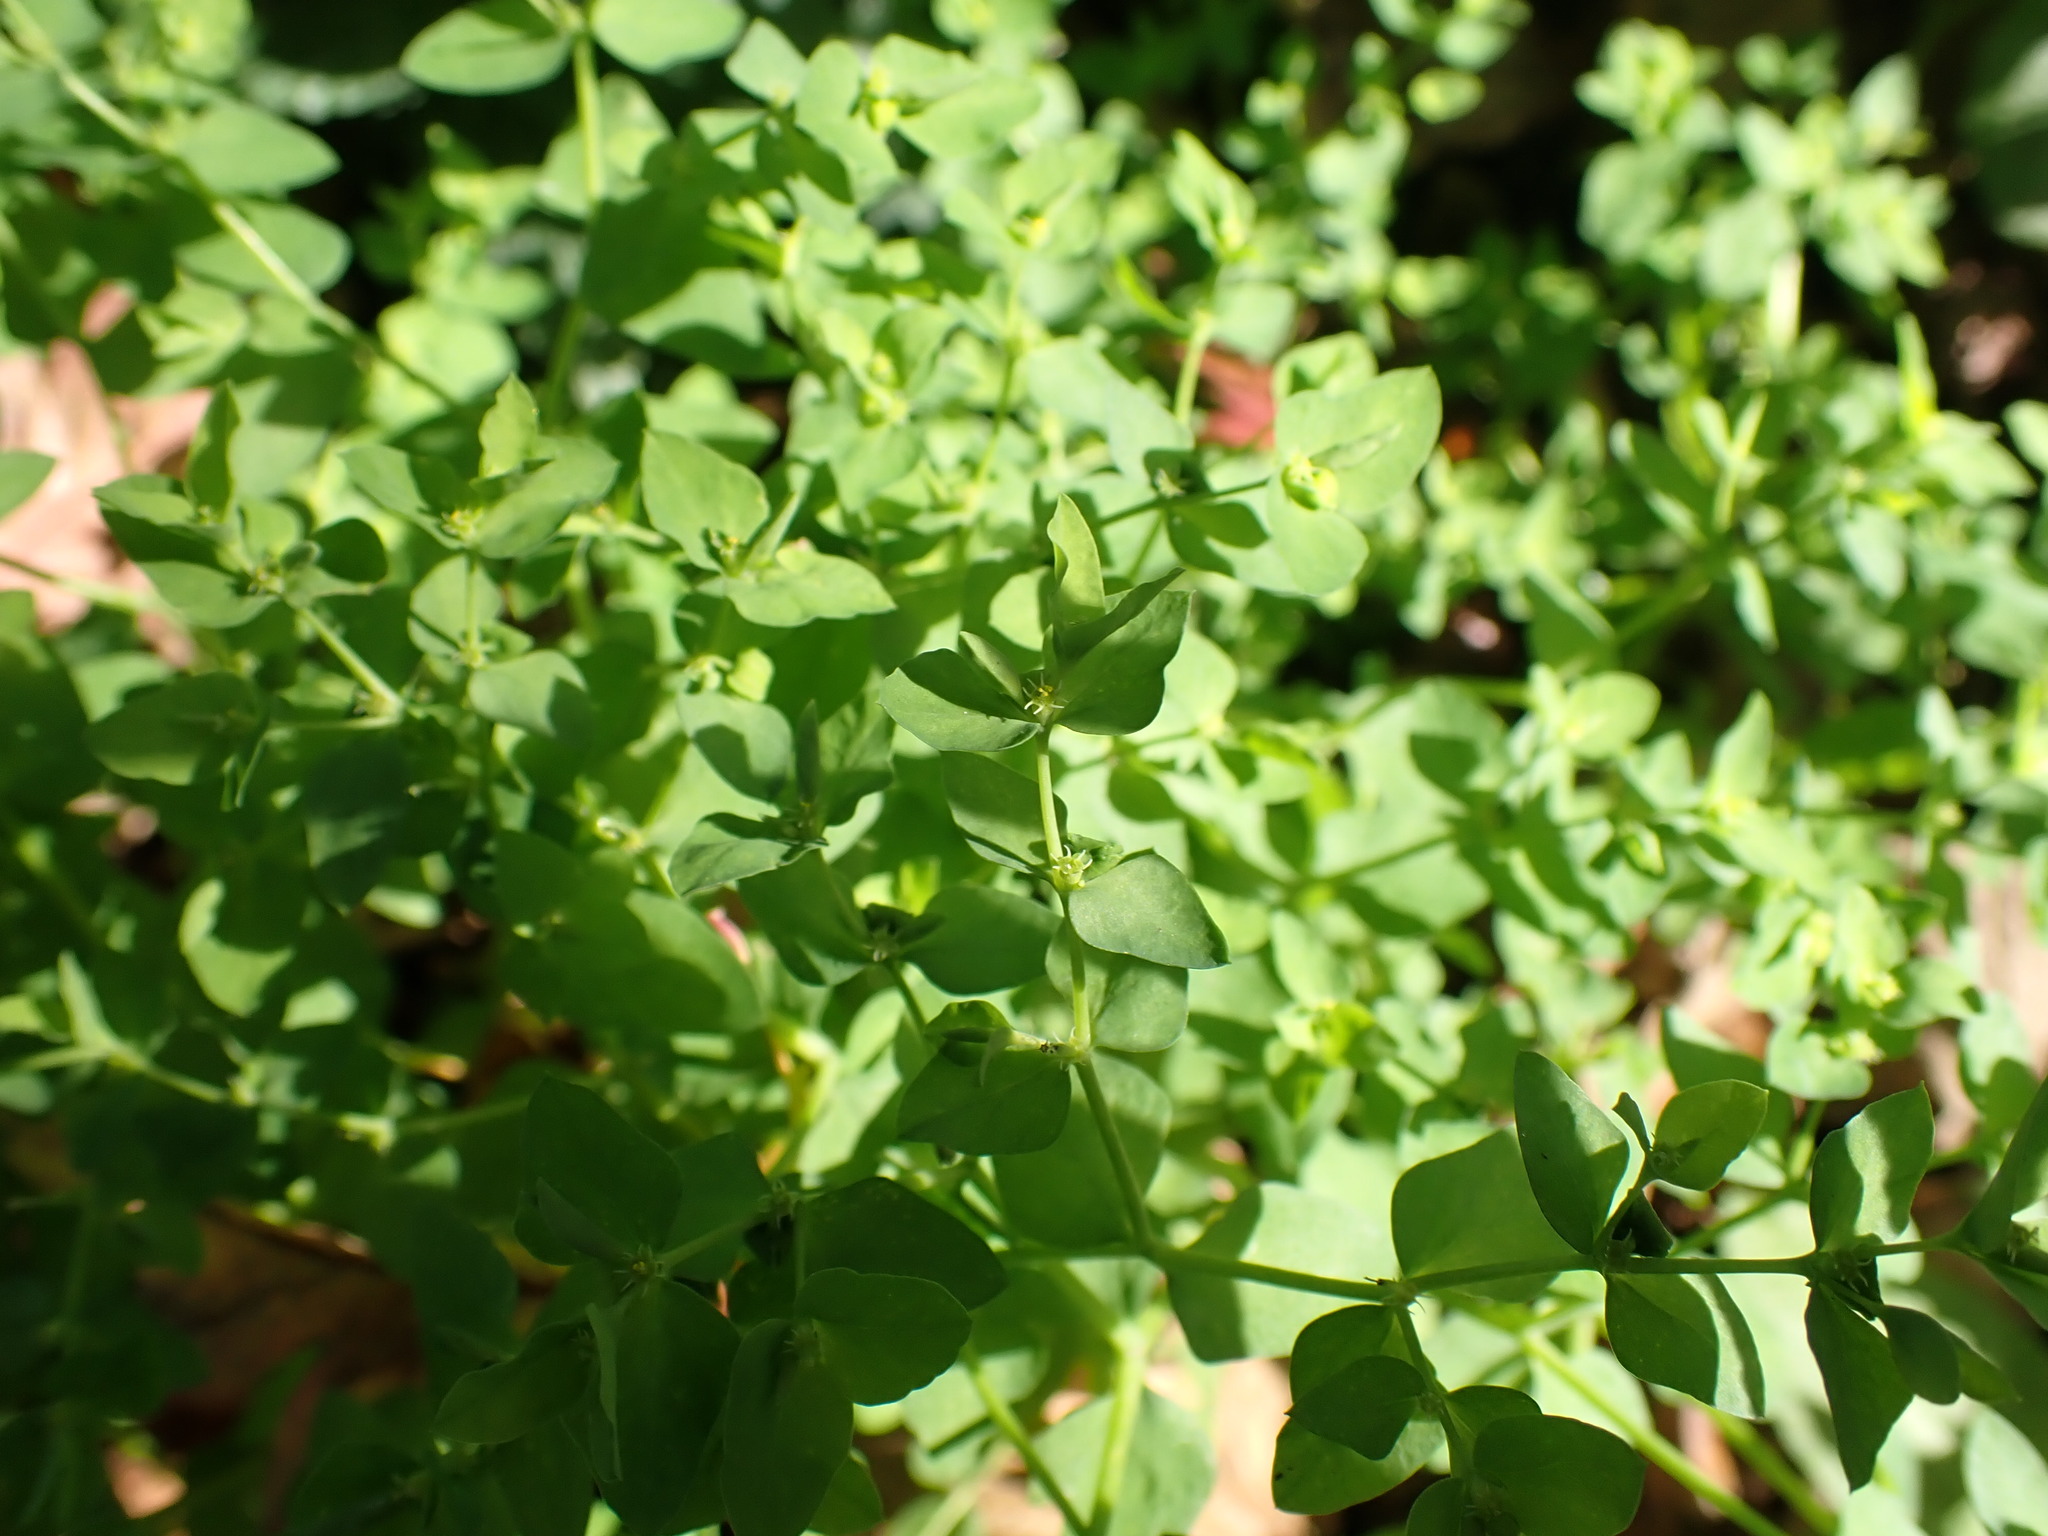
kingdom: Plantae
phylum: Tracheophyta
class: Magnoliopsida
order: Malpighiales
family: Euphorbiaceae
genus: Euphorbia
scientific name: Euphorbia peplus
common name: Petty spurge
